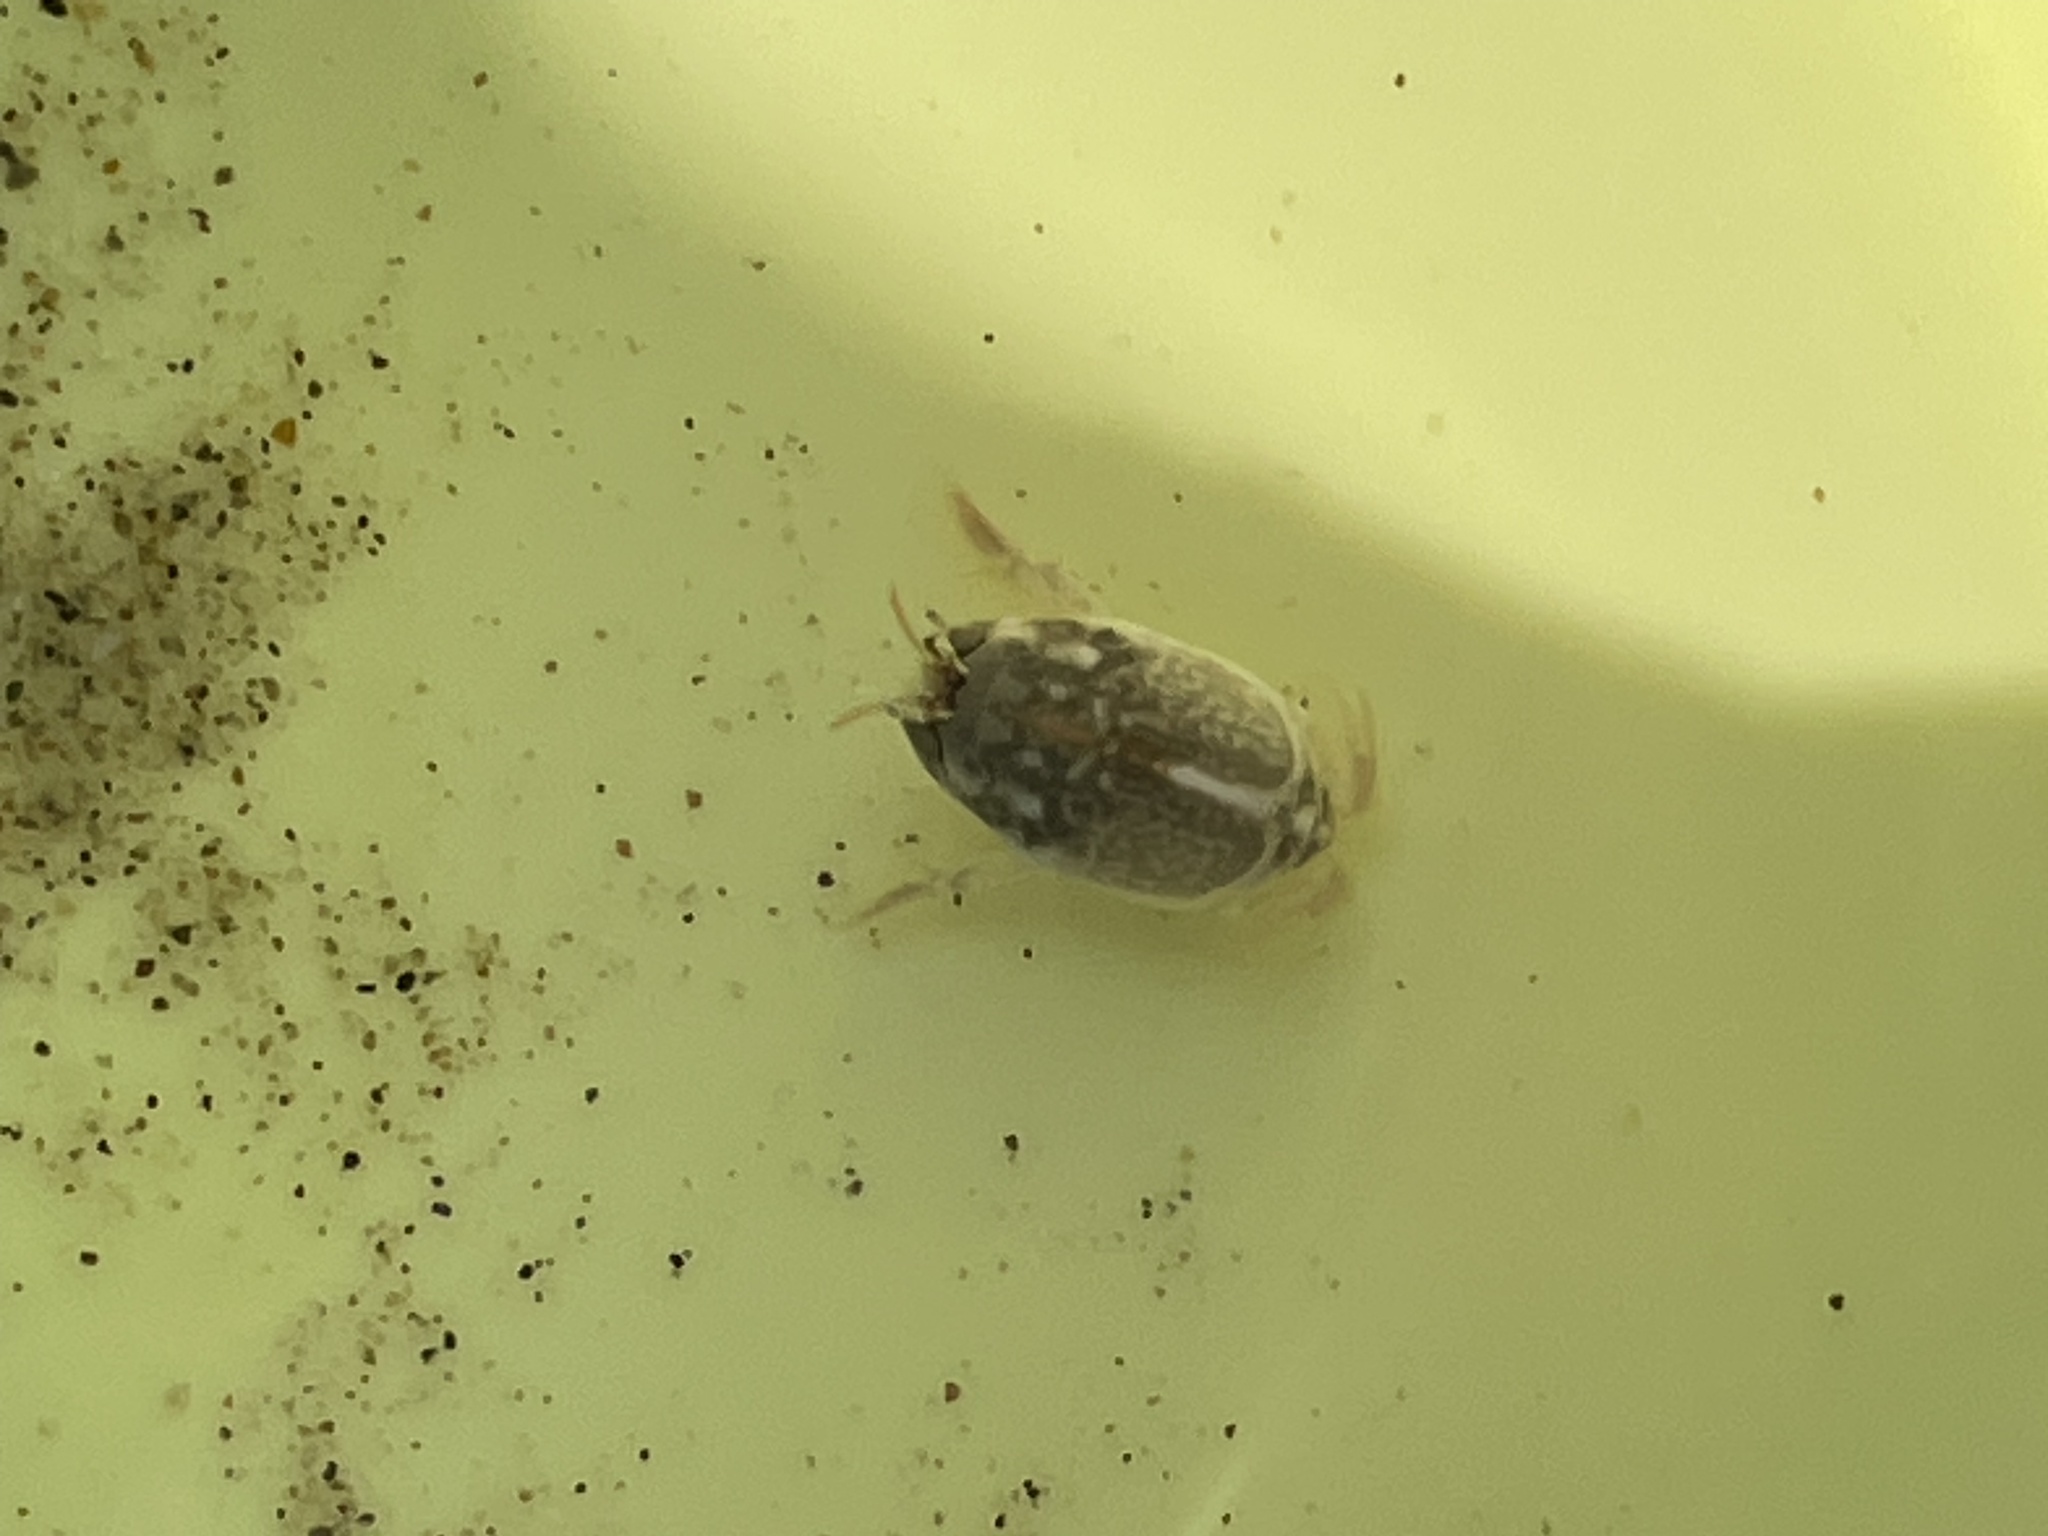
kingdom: Animalia
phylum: Arthropoda
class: Malacostraca
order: Decapoda
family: Hippidae
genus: Emerita
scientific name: Emerita analoga
